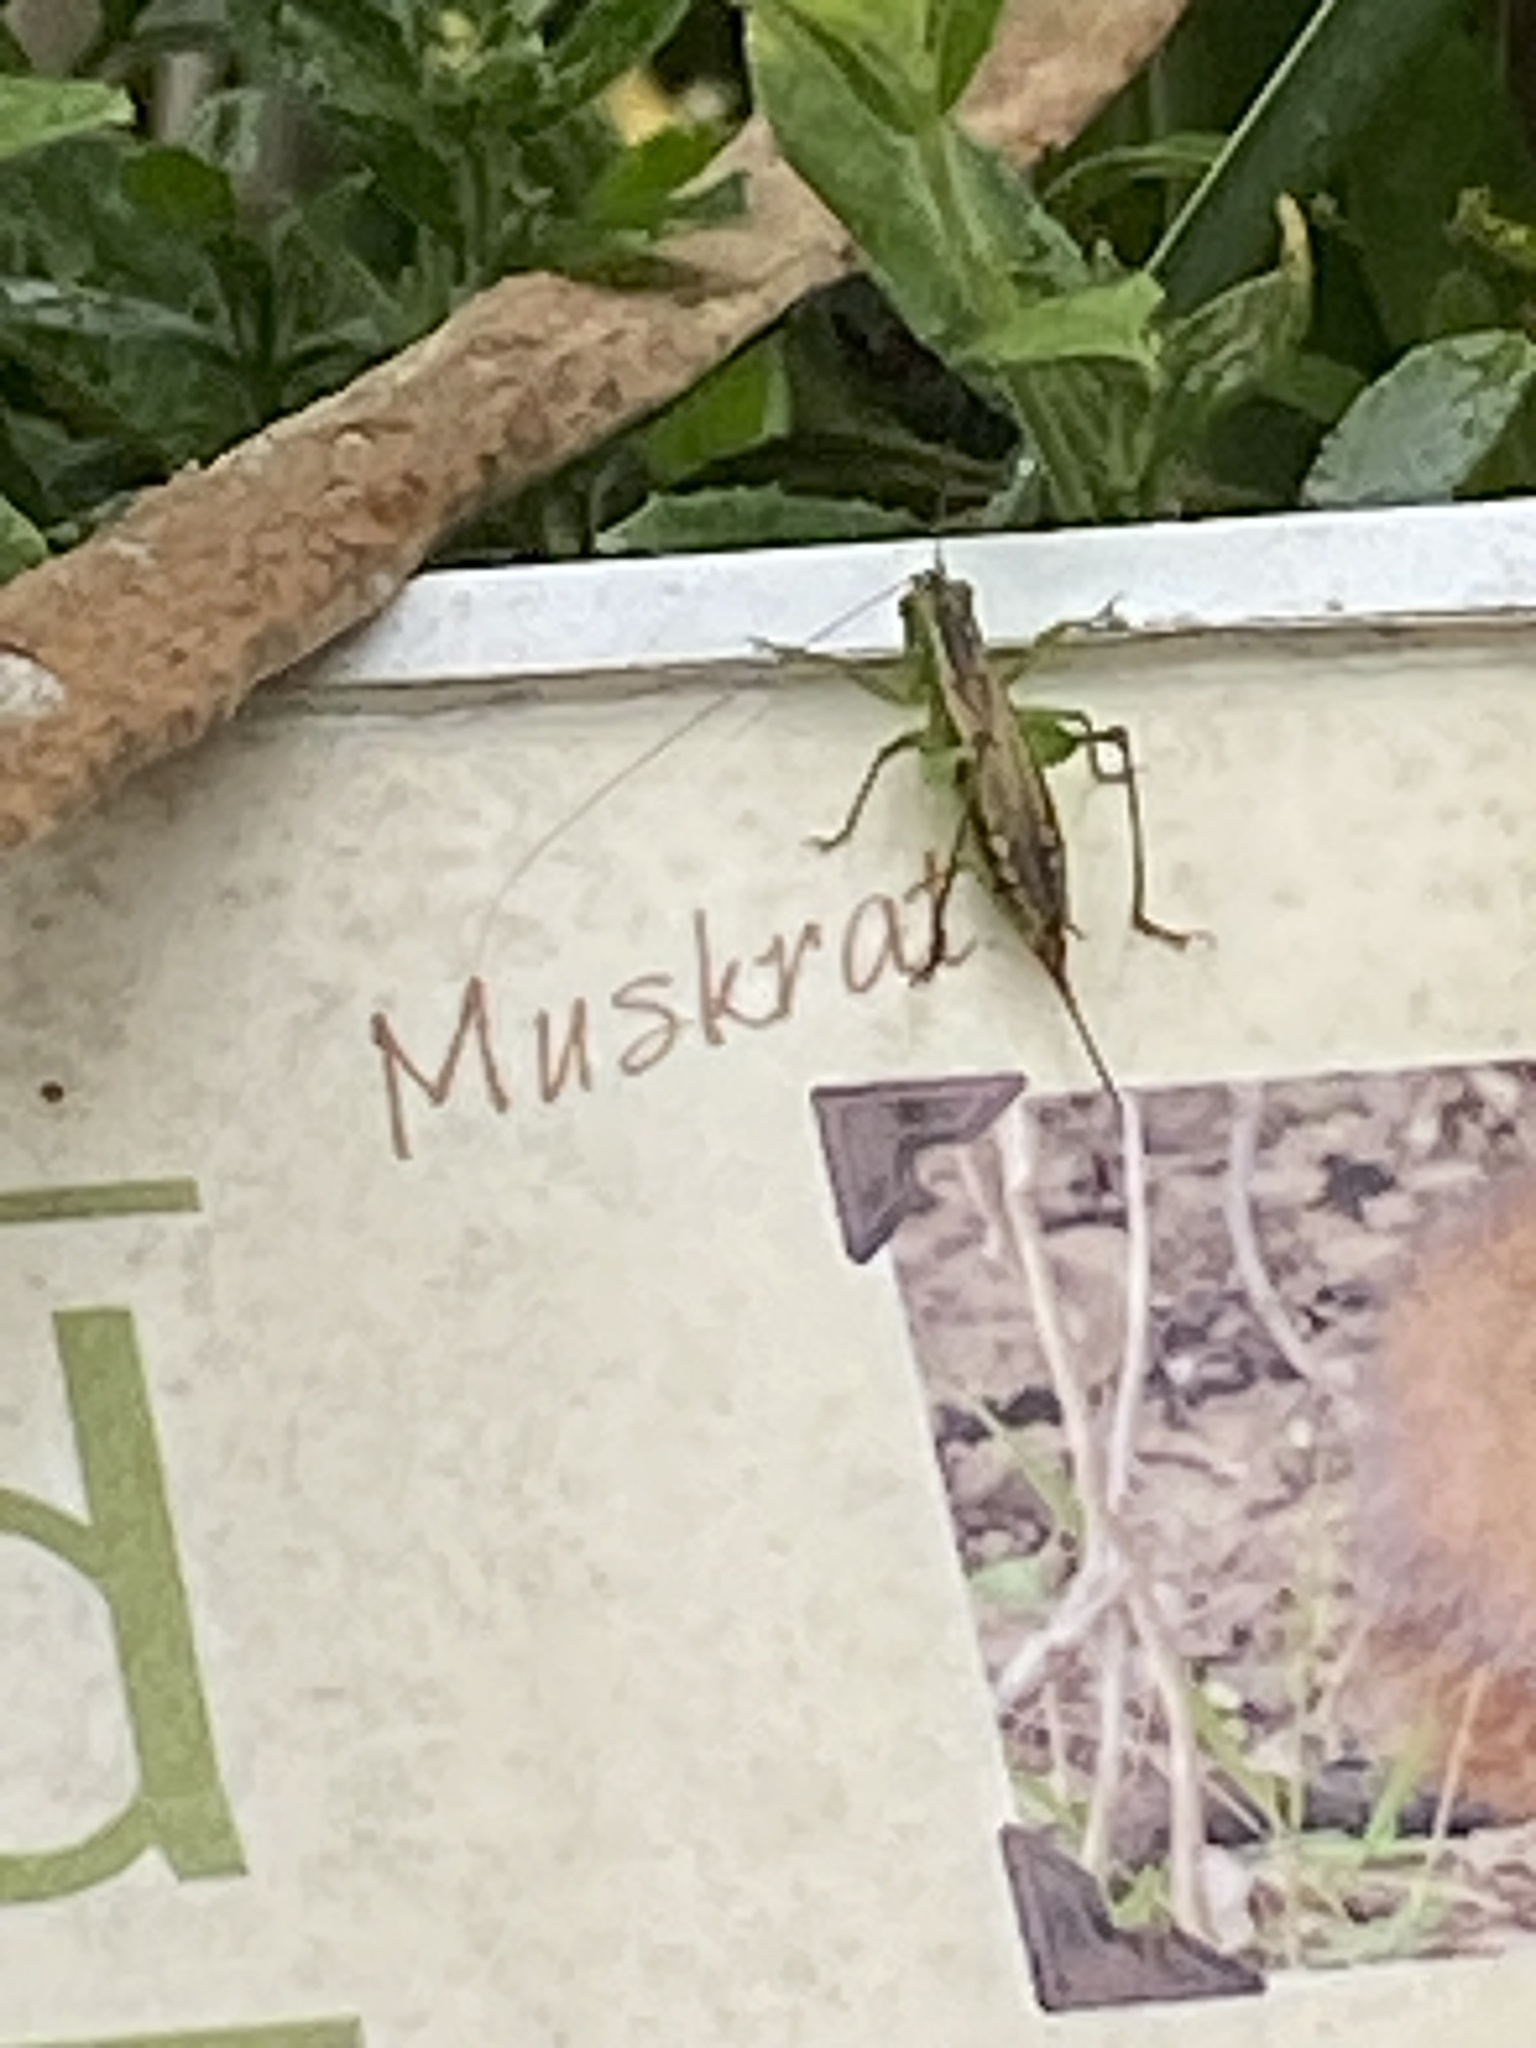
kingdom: Animalia
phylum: Arthropoda
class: Insecta
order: Orthoptera
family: Tettigoniidae
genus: Conocephalus
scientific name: Conocephalus brevipennis
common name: Short-winged meadow katydid
